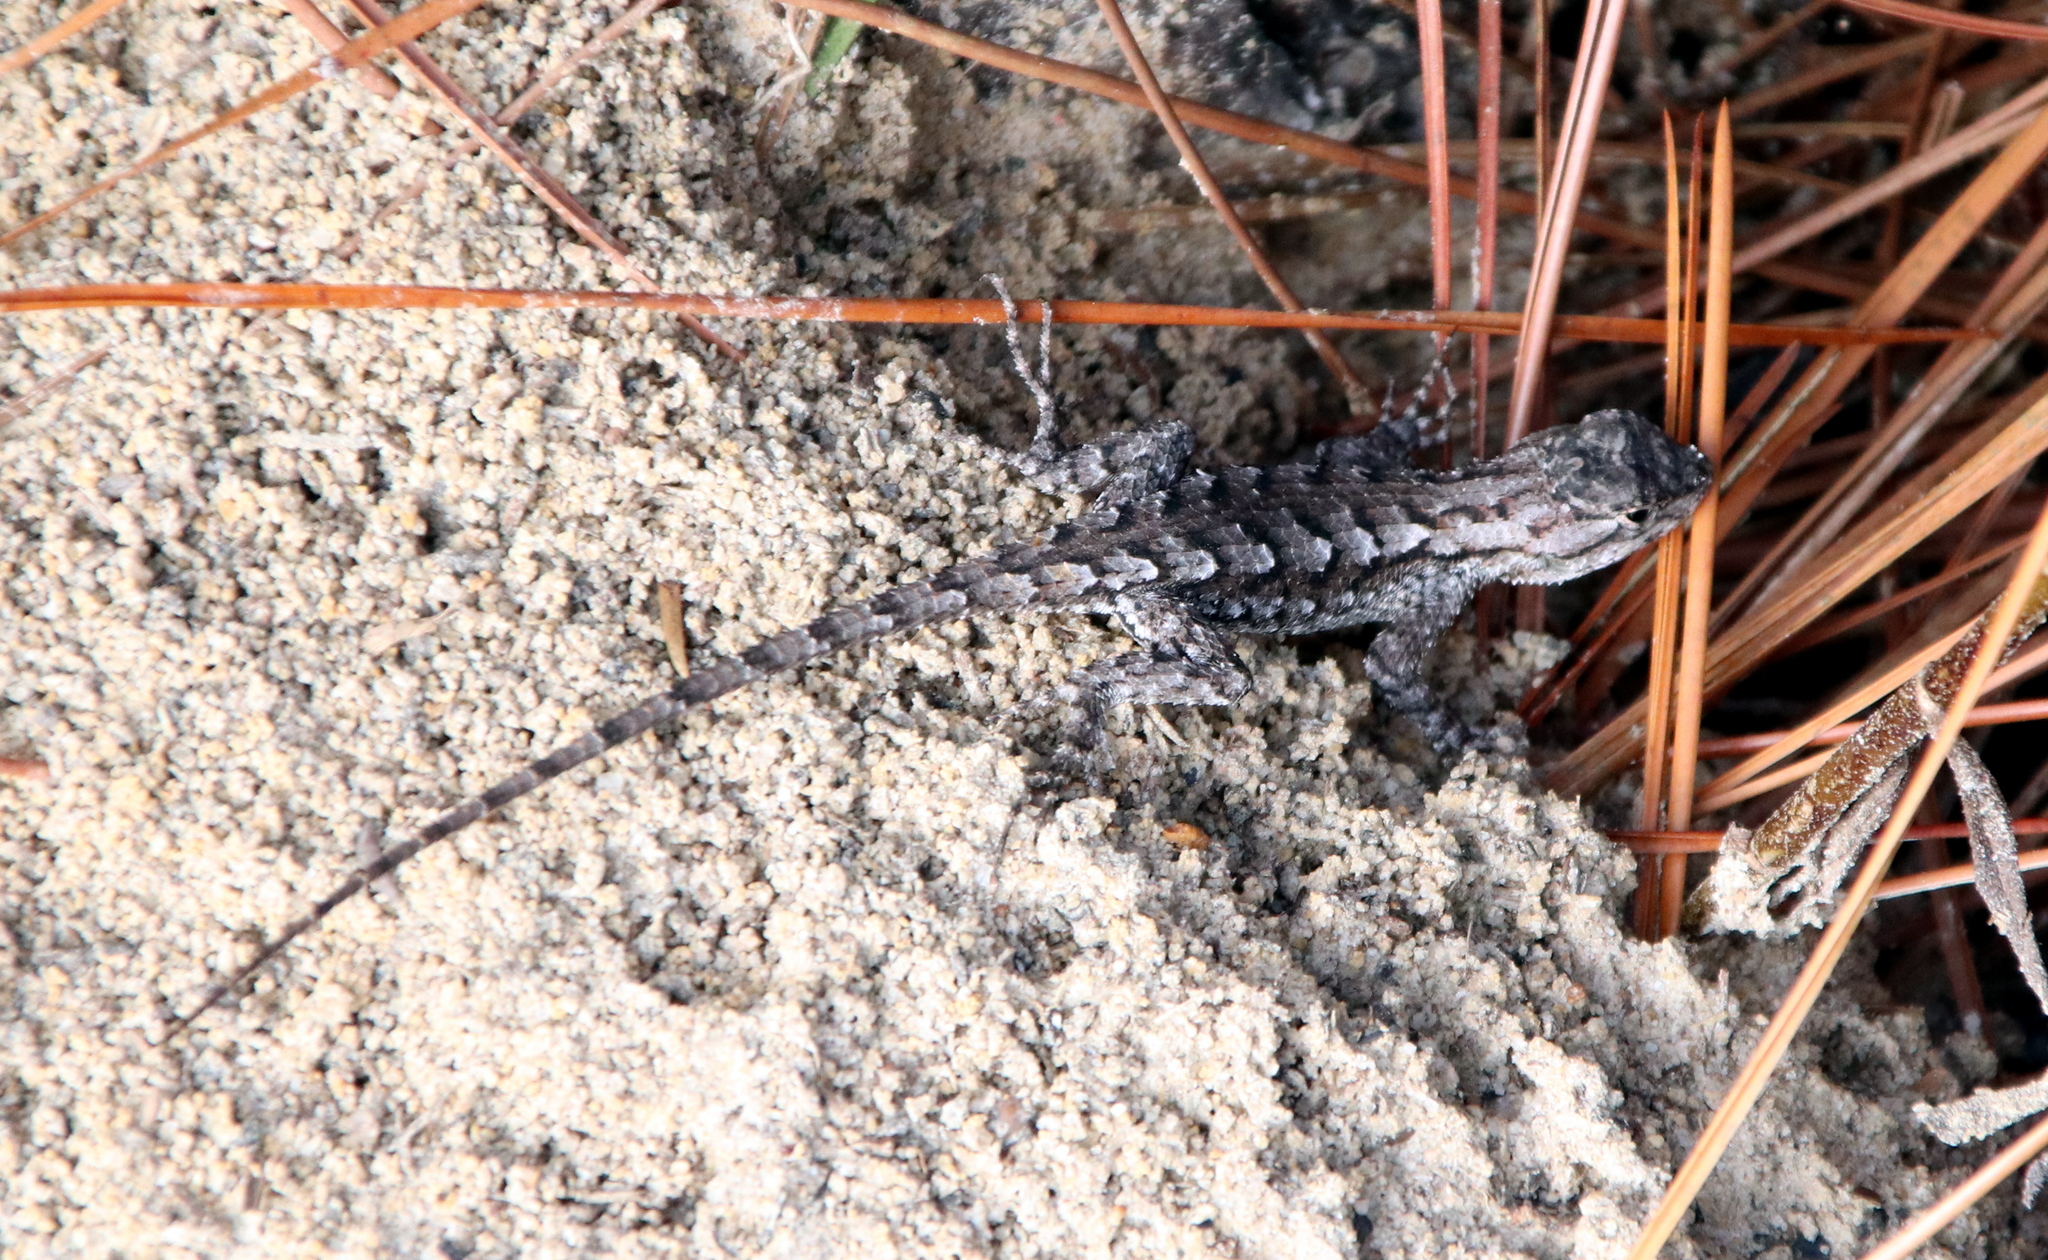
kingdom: Animalia
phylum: Chordata
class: Squamata
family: Phrynosomatidae
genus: Sceloporus
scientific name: Sceloporus undulatus
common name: Eastern fence lizard
